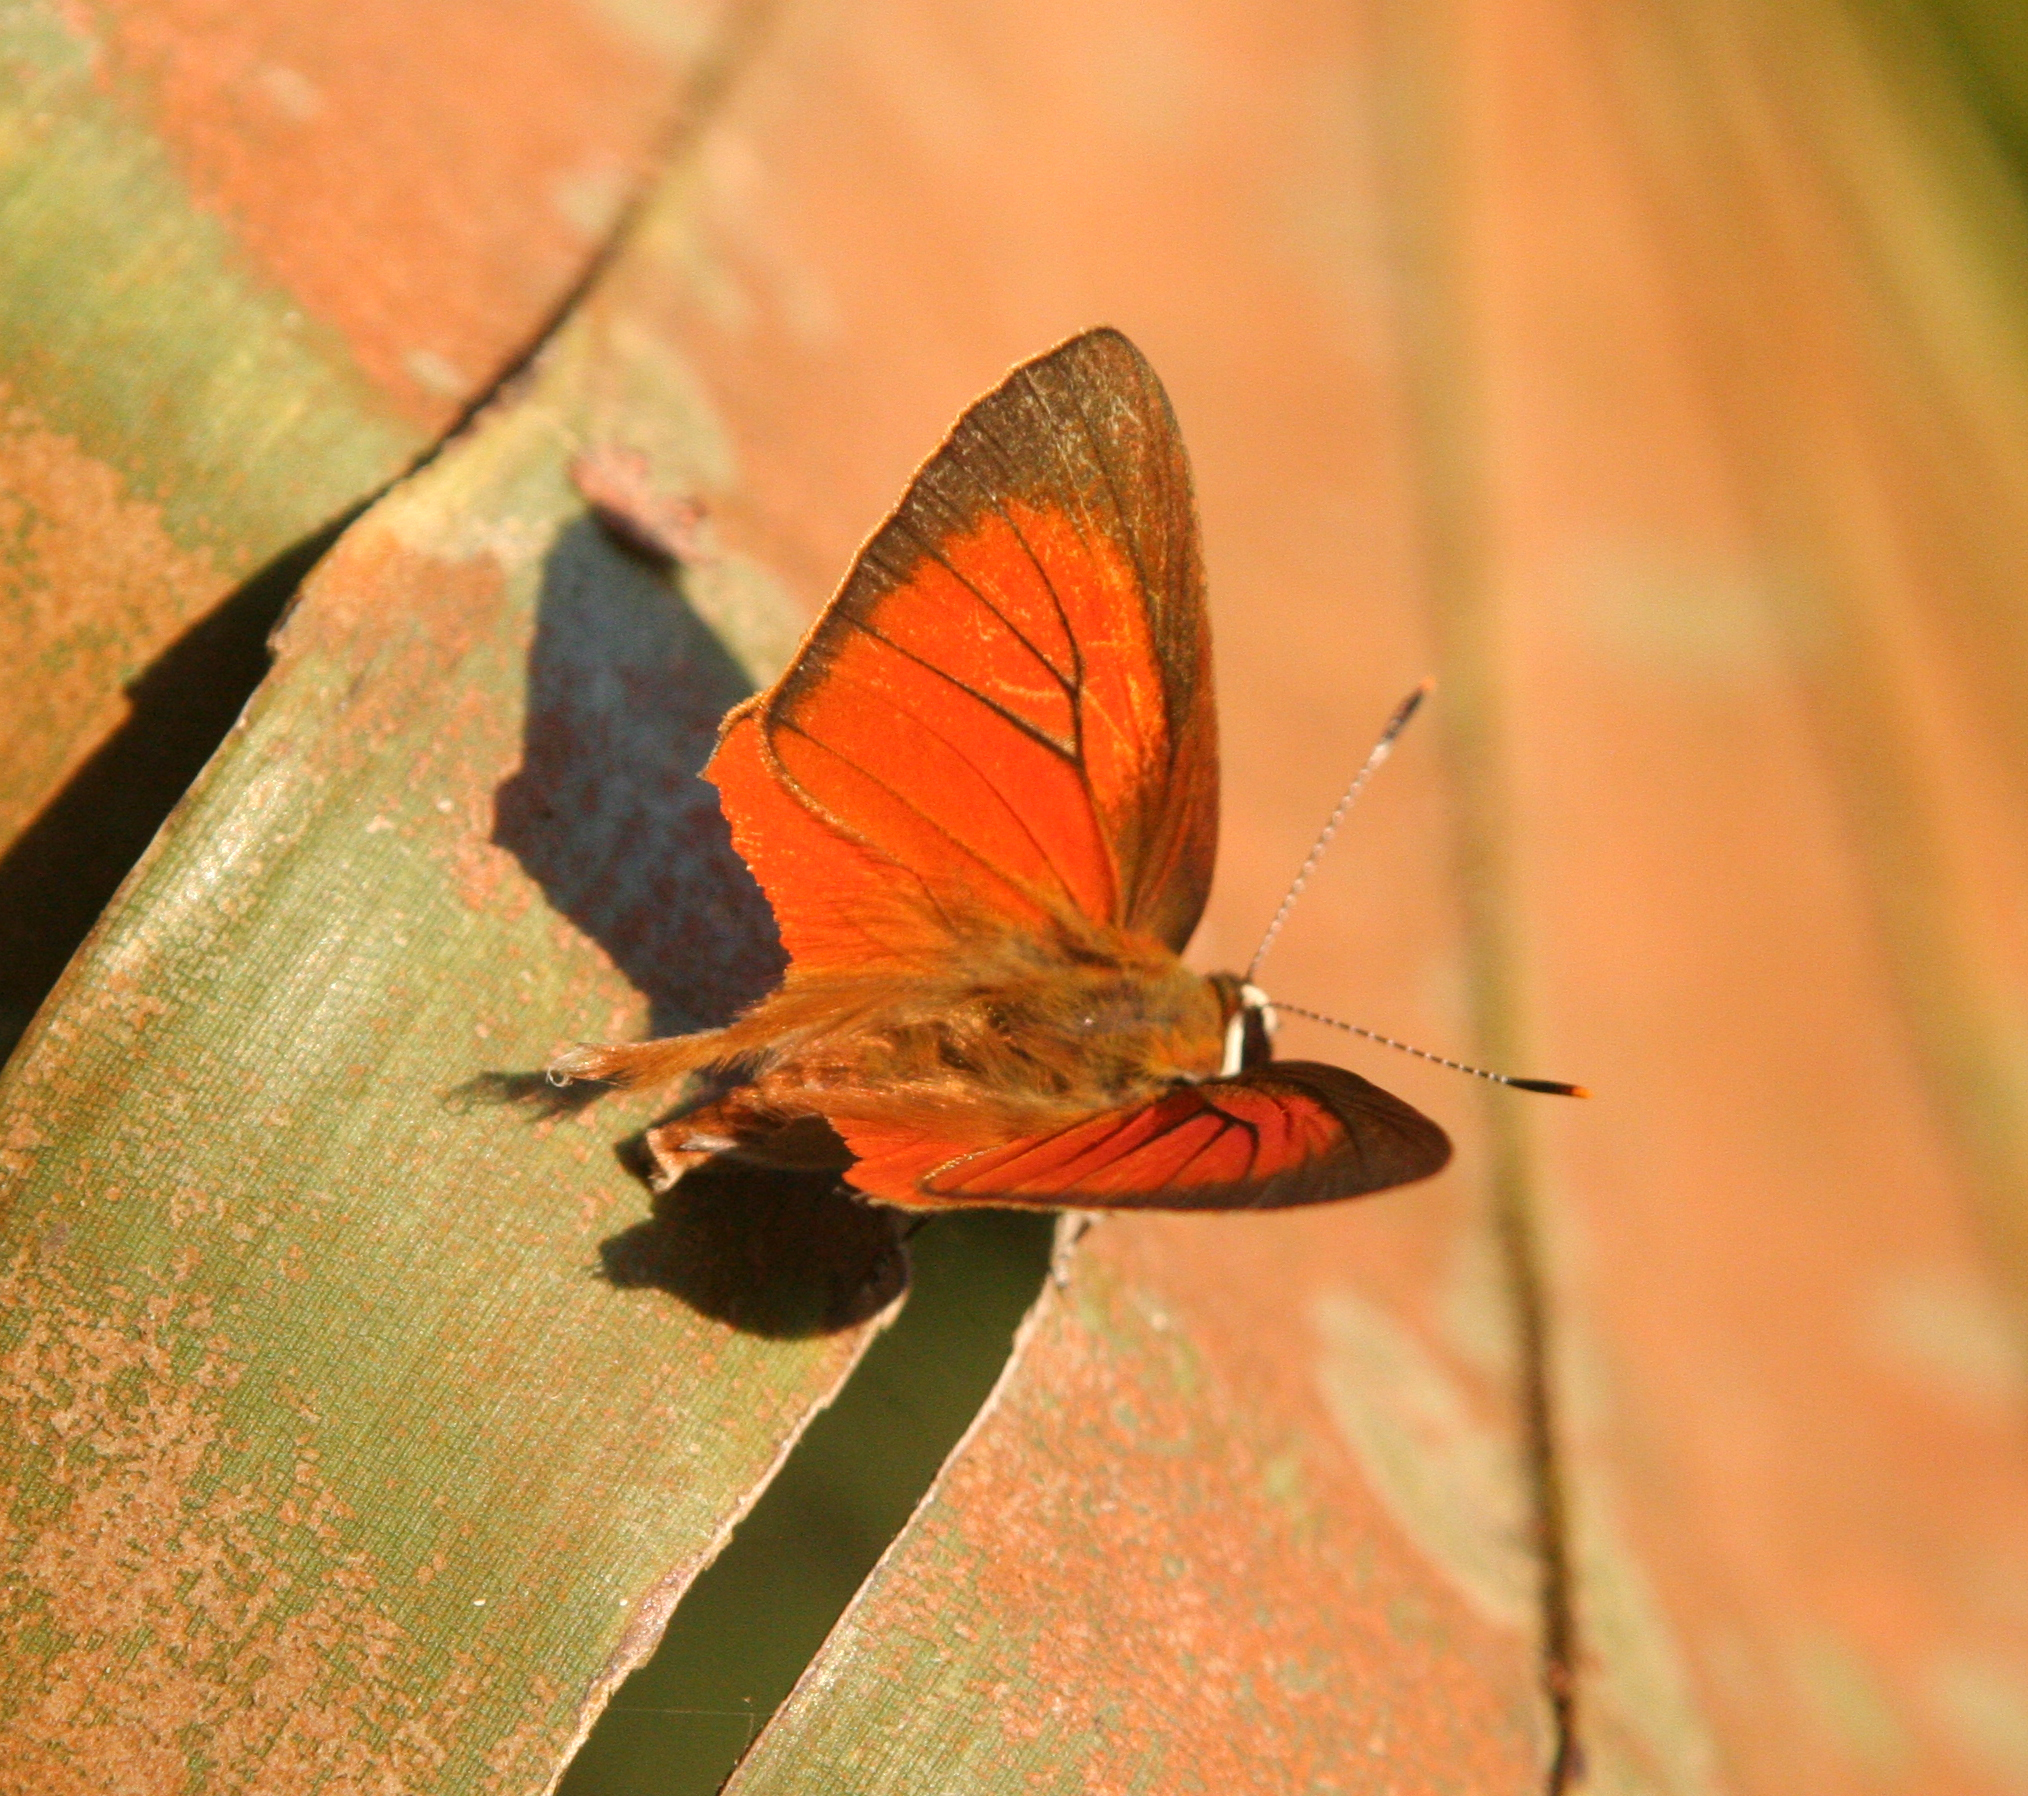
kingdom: Animalia
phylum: Arthropoda
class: Insecta
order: Lepidoptera
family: Lycaenidae
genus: Rapala
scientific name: Rapala iarbas
